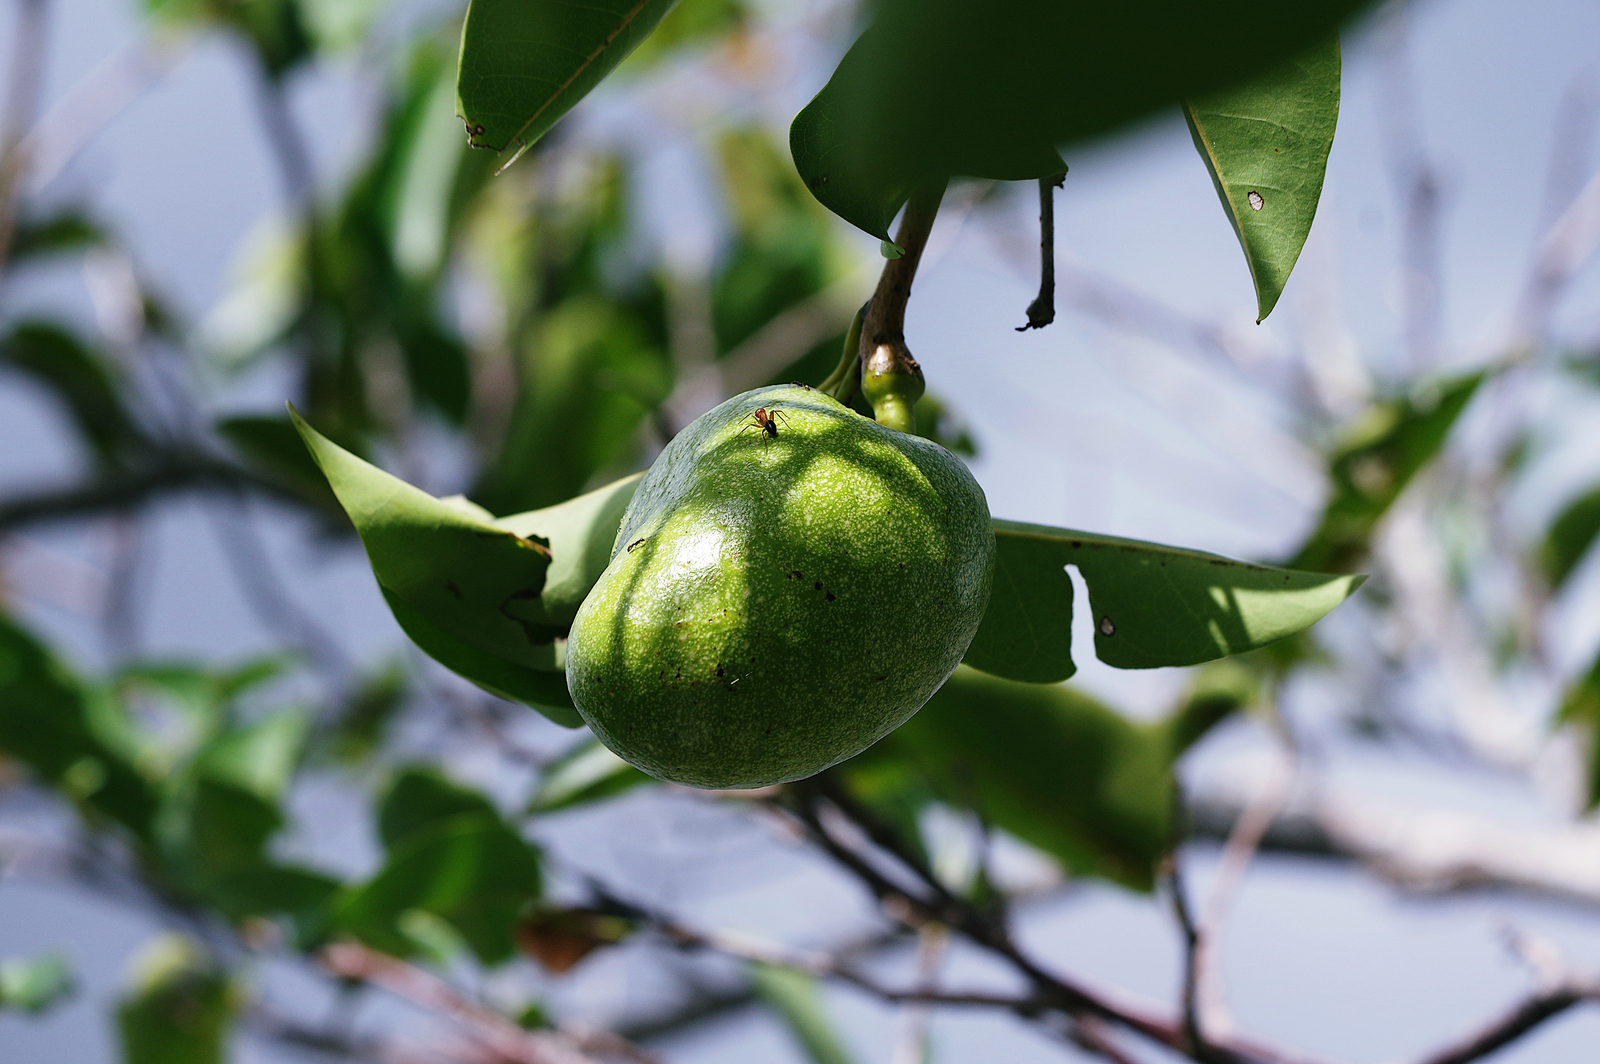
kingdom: Plantae
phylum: Tracheophyta
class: Magnoliopsida
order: Magnoliales
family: Annonaceae
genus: Annona
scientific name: Annona glabra
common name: Monkey apple
